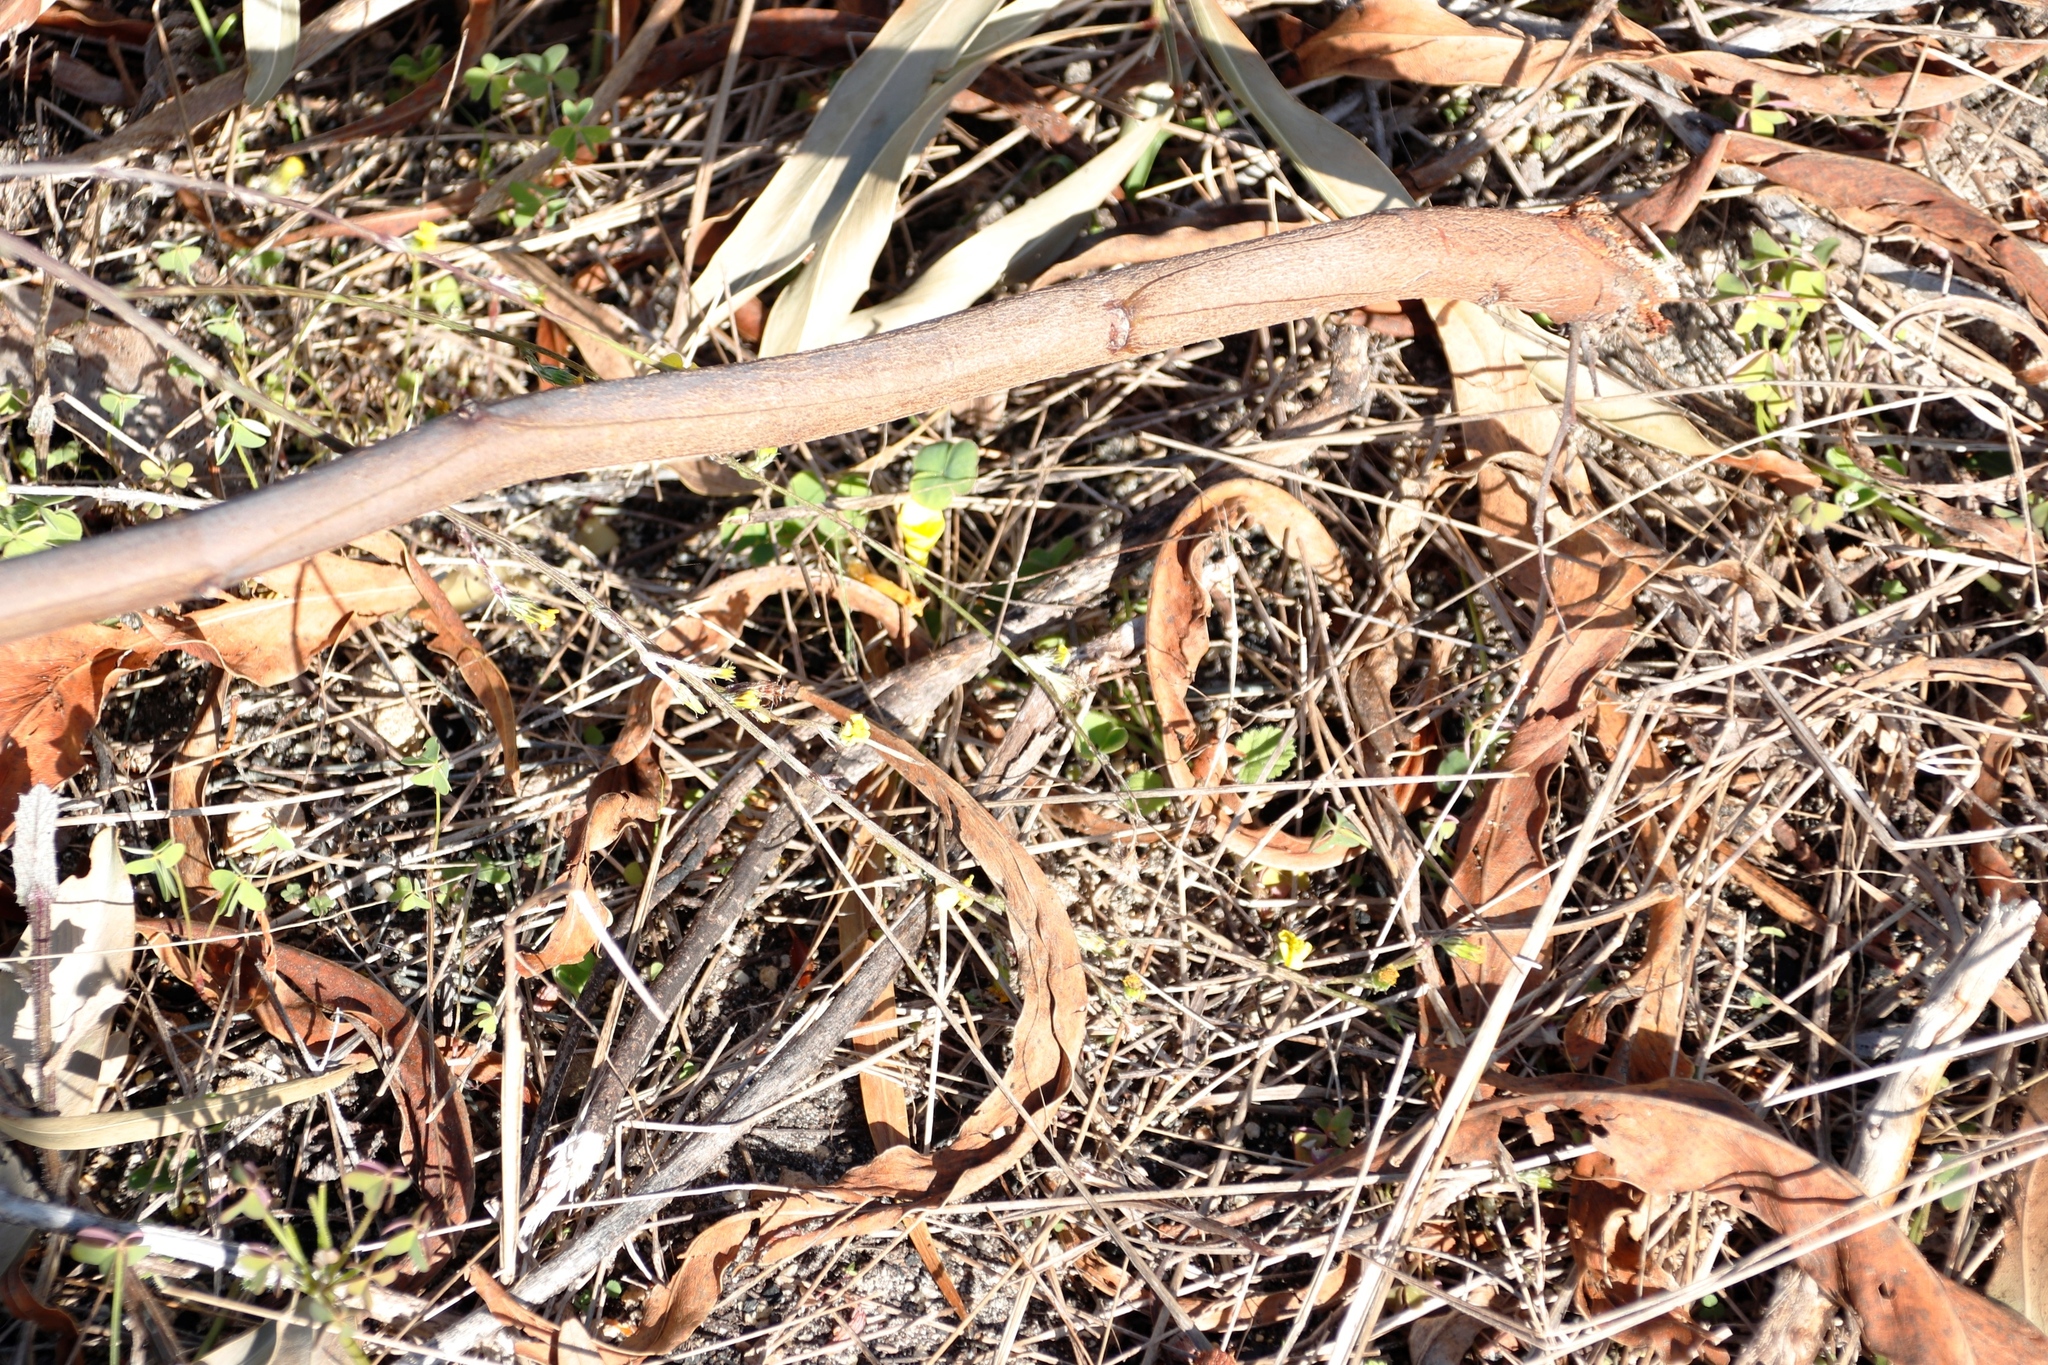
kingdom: Plantae
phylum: Tracheophyta
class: Magnoliopsida
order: Oxalidales
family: Oxalidaceae
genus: Oxalis
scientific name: Oxalis luteola
